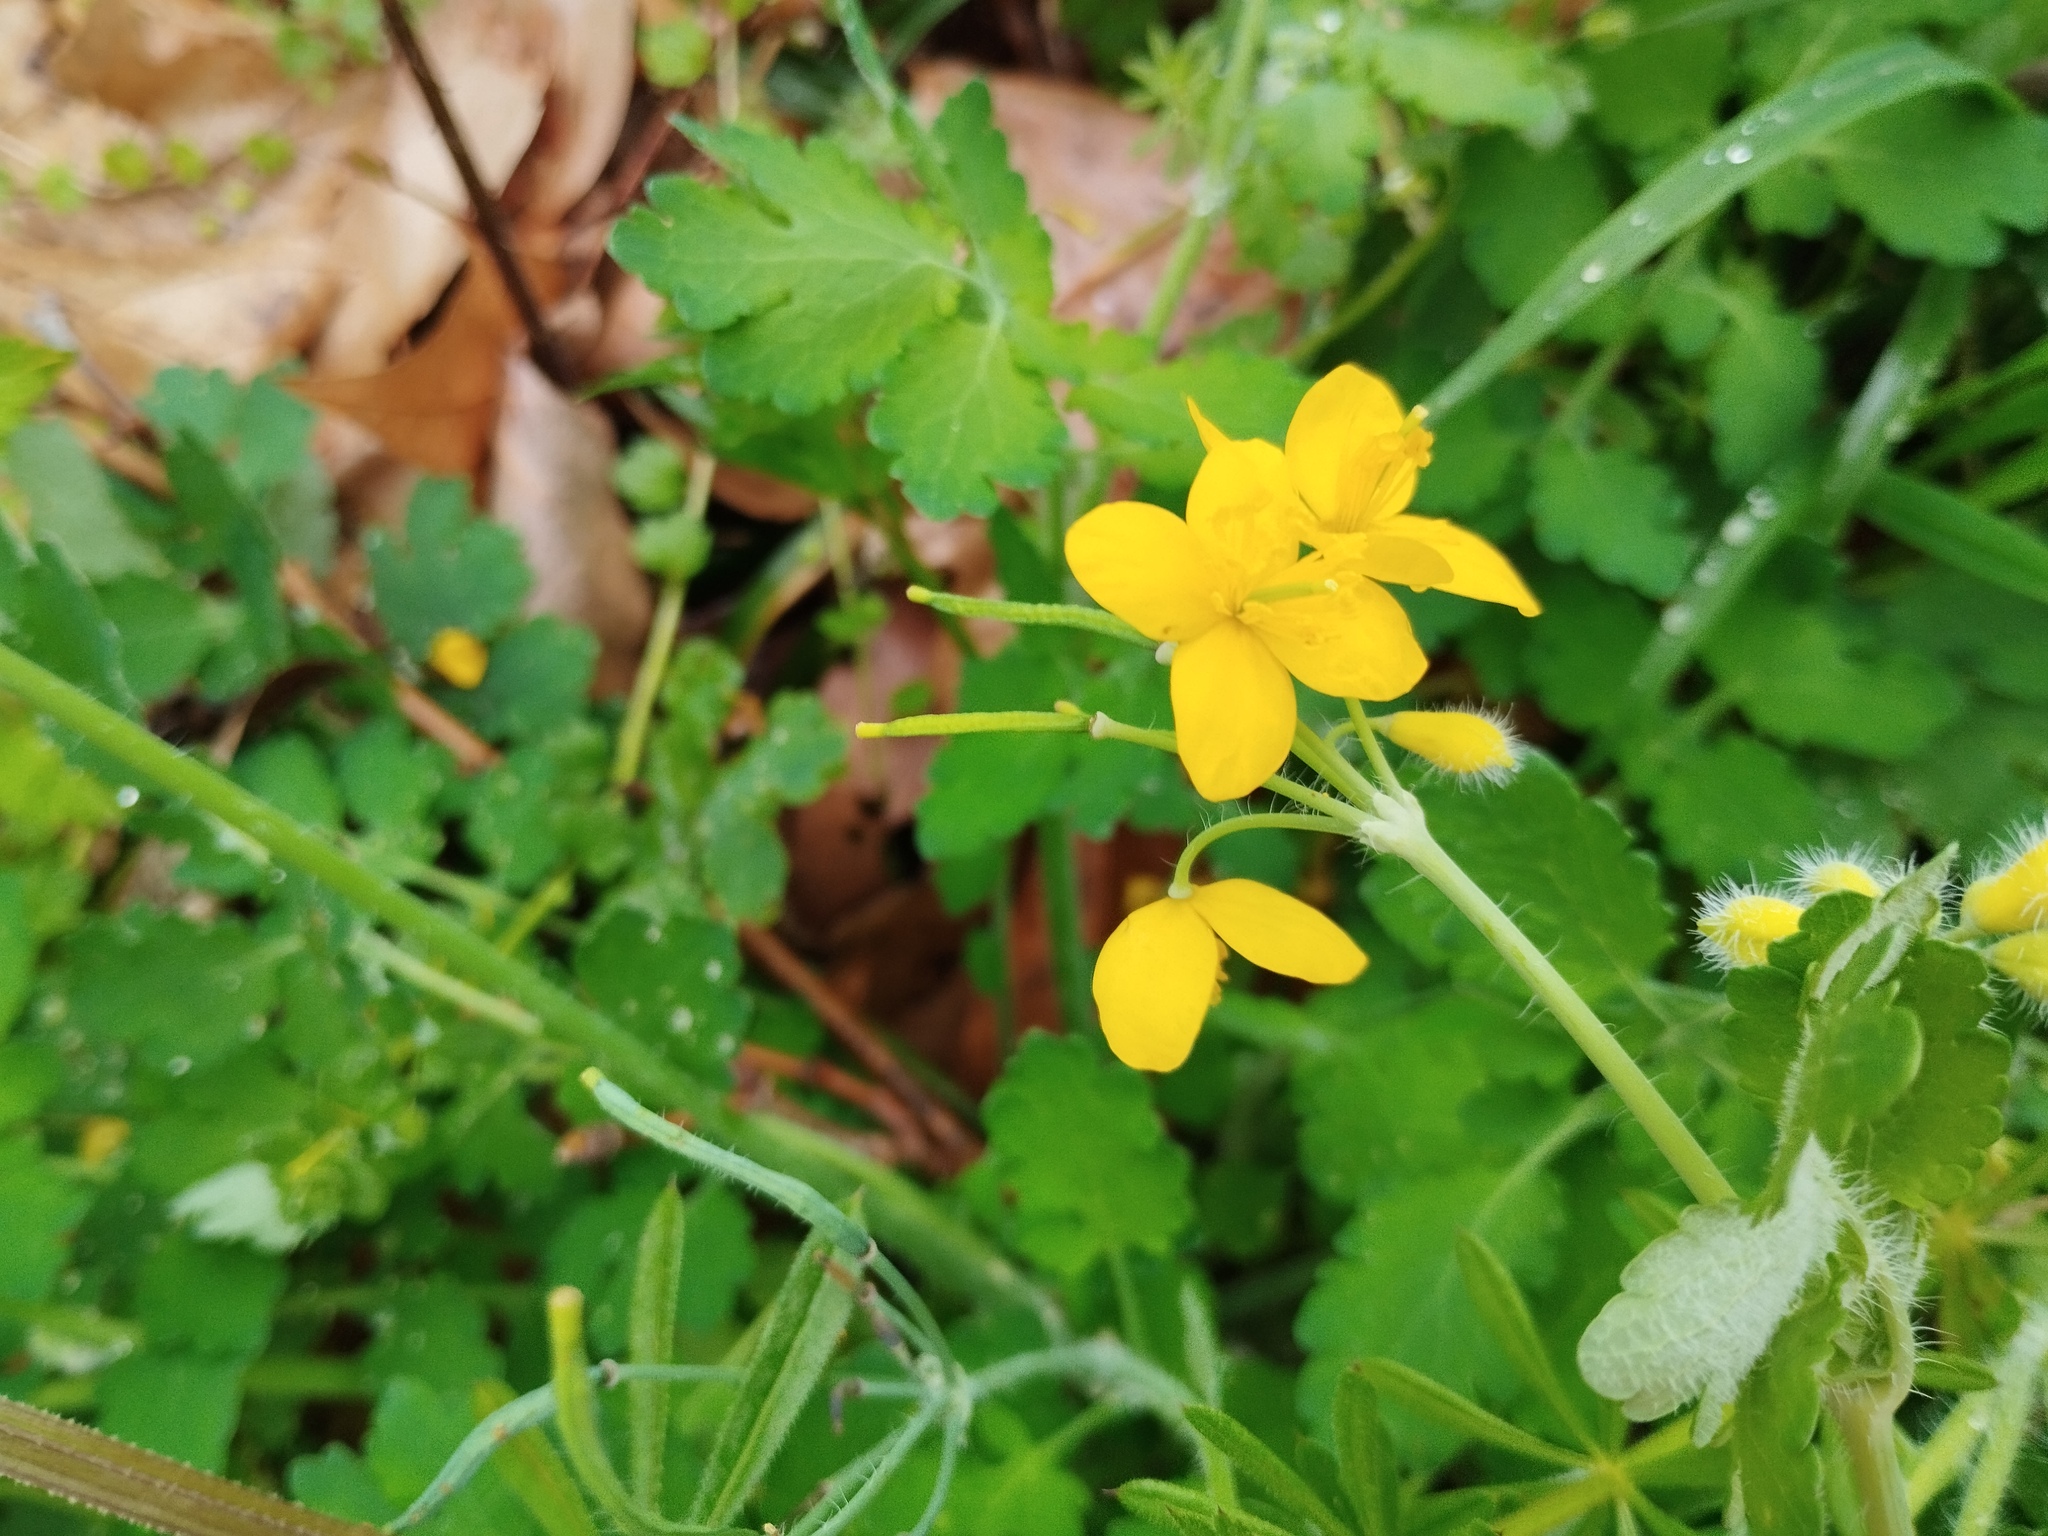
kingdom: Plantae
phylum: Tracheophyta
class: Magnoliopsida
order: Ranunculales
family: Papaveraceae
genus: Chelidonium
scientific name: Chelidonium majus
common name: Greater celandine
